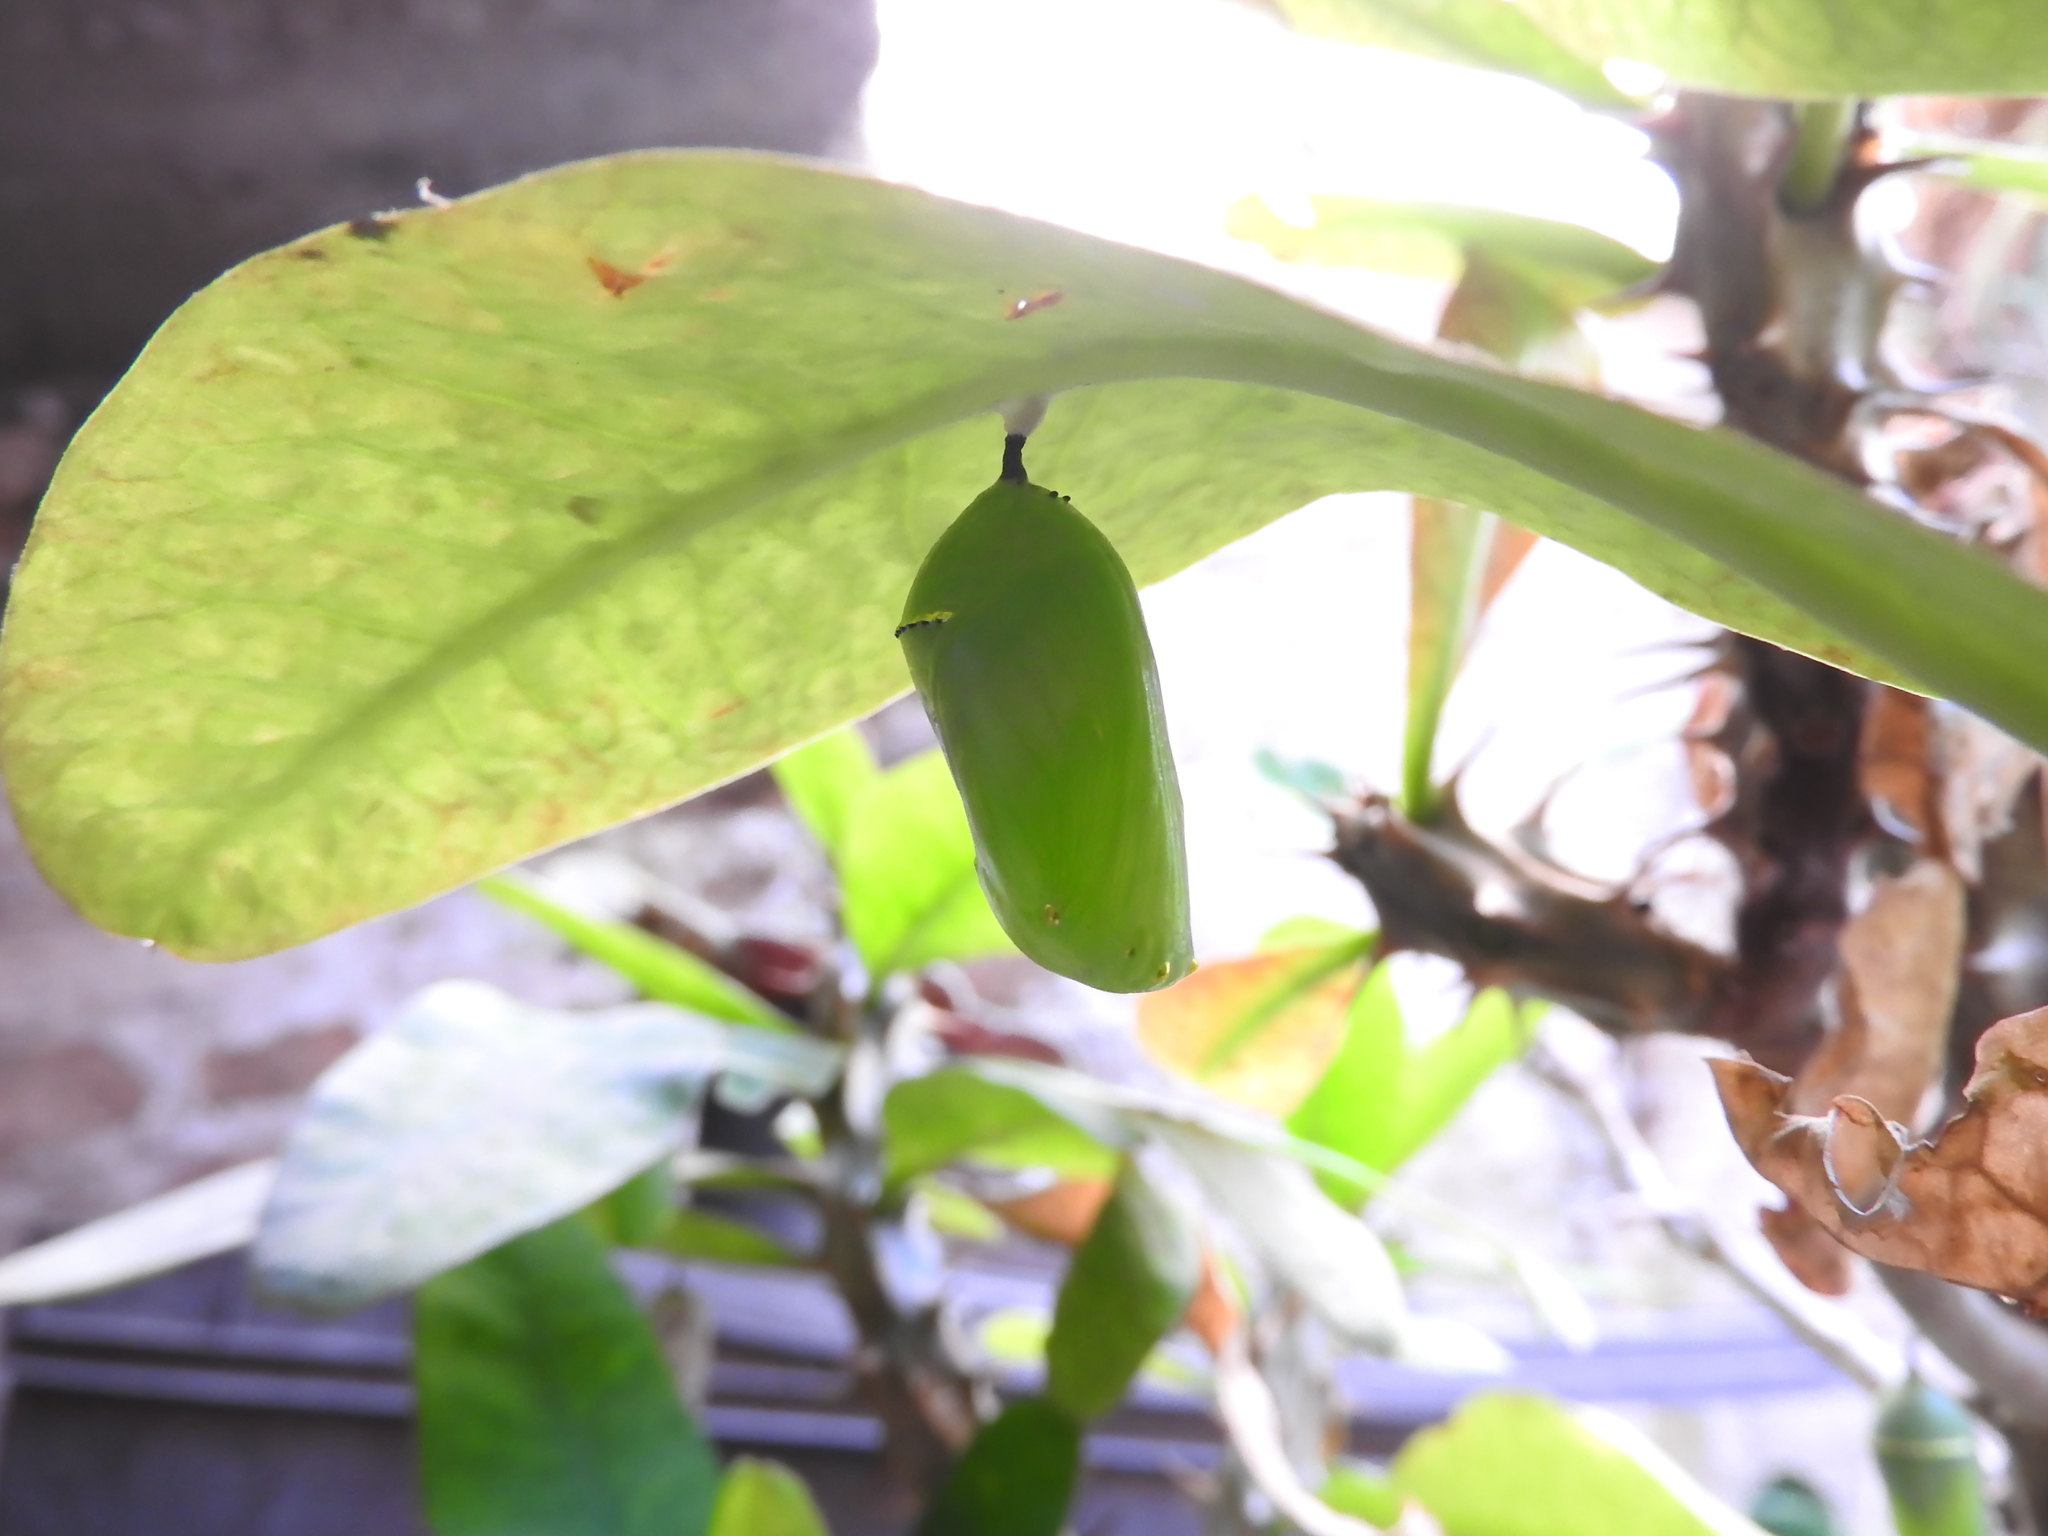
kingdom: Animalia
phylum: Arthropoda
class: Insecta
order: Lepidoptera
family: Nymphalidae
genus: Danaus
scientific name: Danaus plexippus
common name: Monarch
